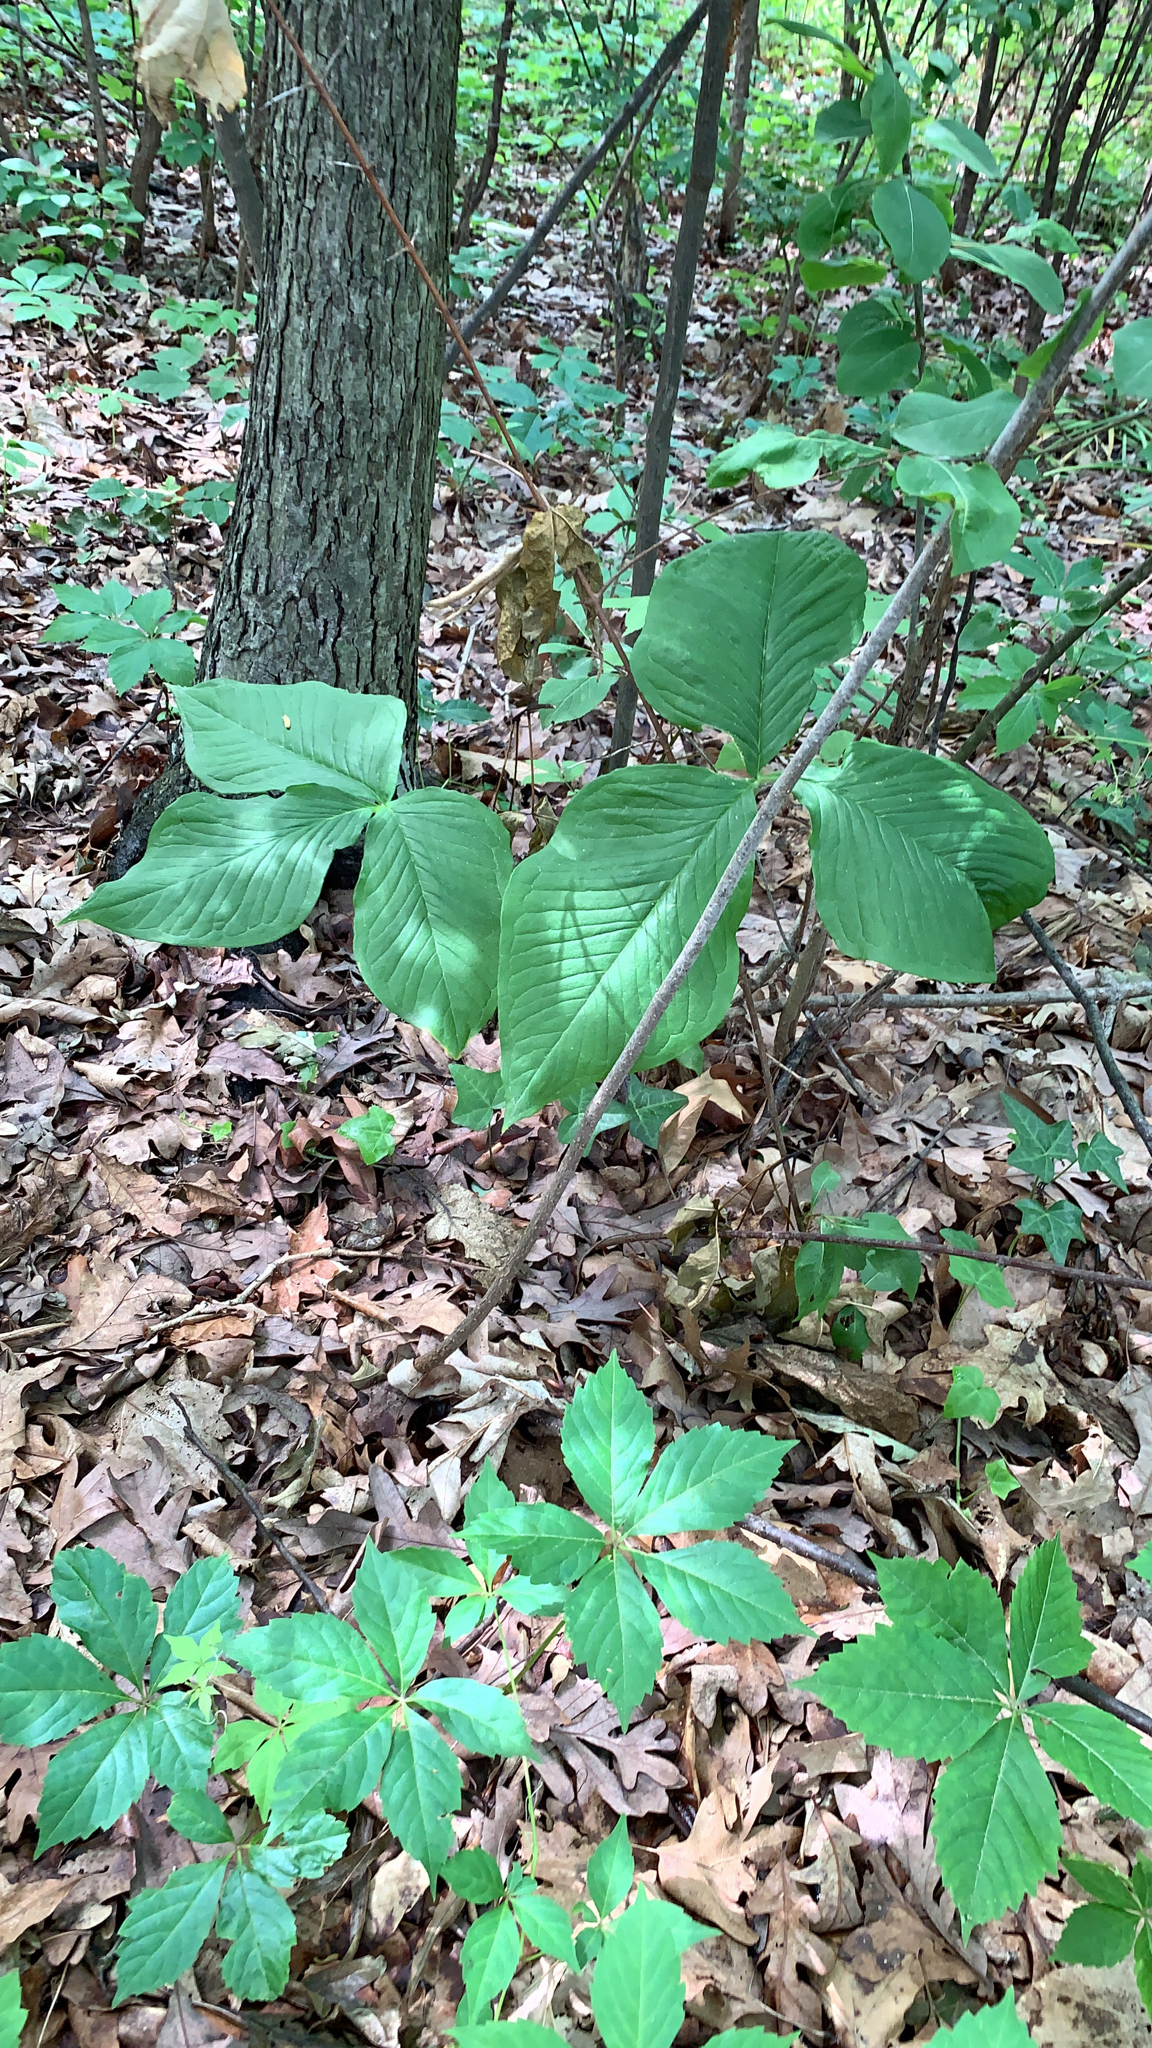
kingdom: Plantae
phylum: Tracheophyta
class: Liliopsida
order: Alismatales
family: Araceae
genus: Arisaema
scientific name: Arisaema triphyllum
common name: Jack-in-the-pulpit
